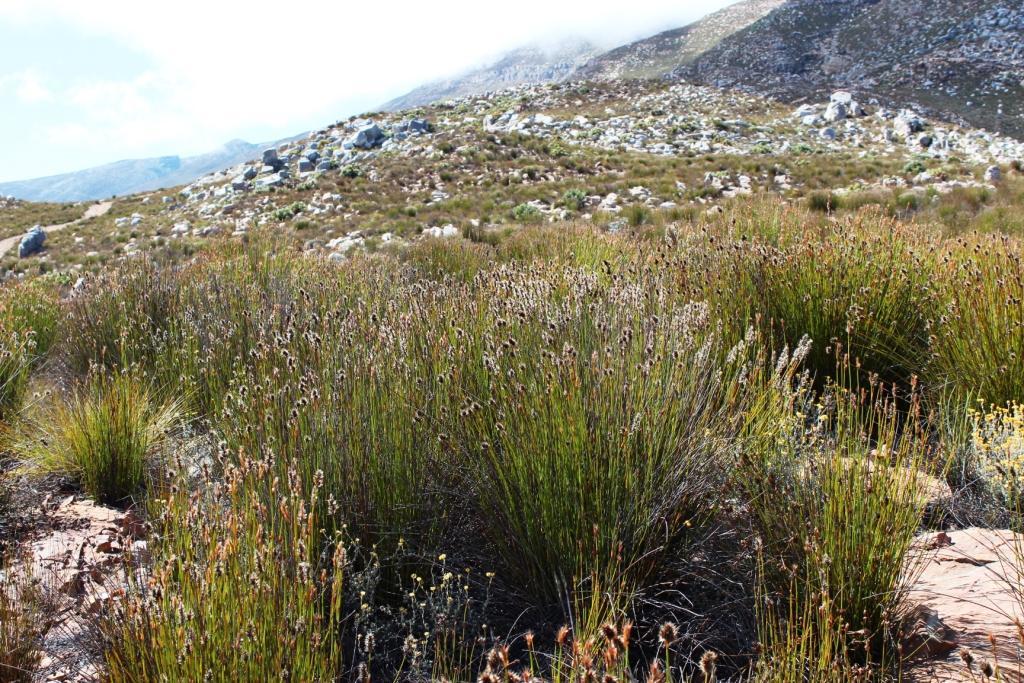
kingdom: Plantae
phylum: Tracheophyta
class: Liliopsida
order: Poales
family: Restionaceae
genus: Askidiosperma
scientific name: Askidiosperma capitatum
